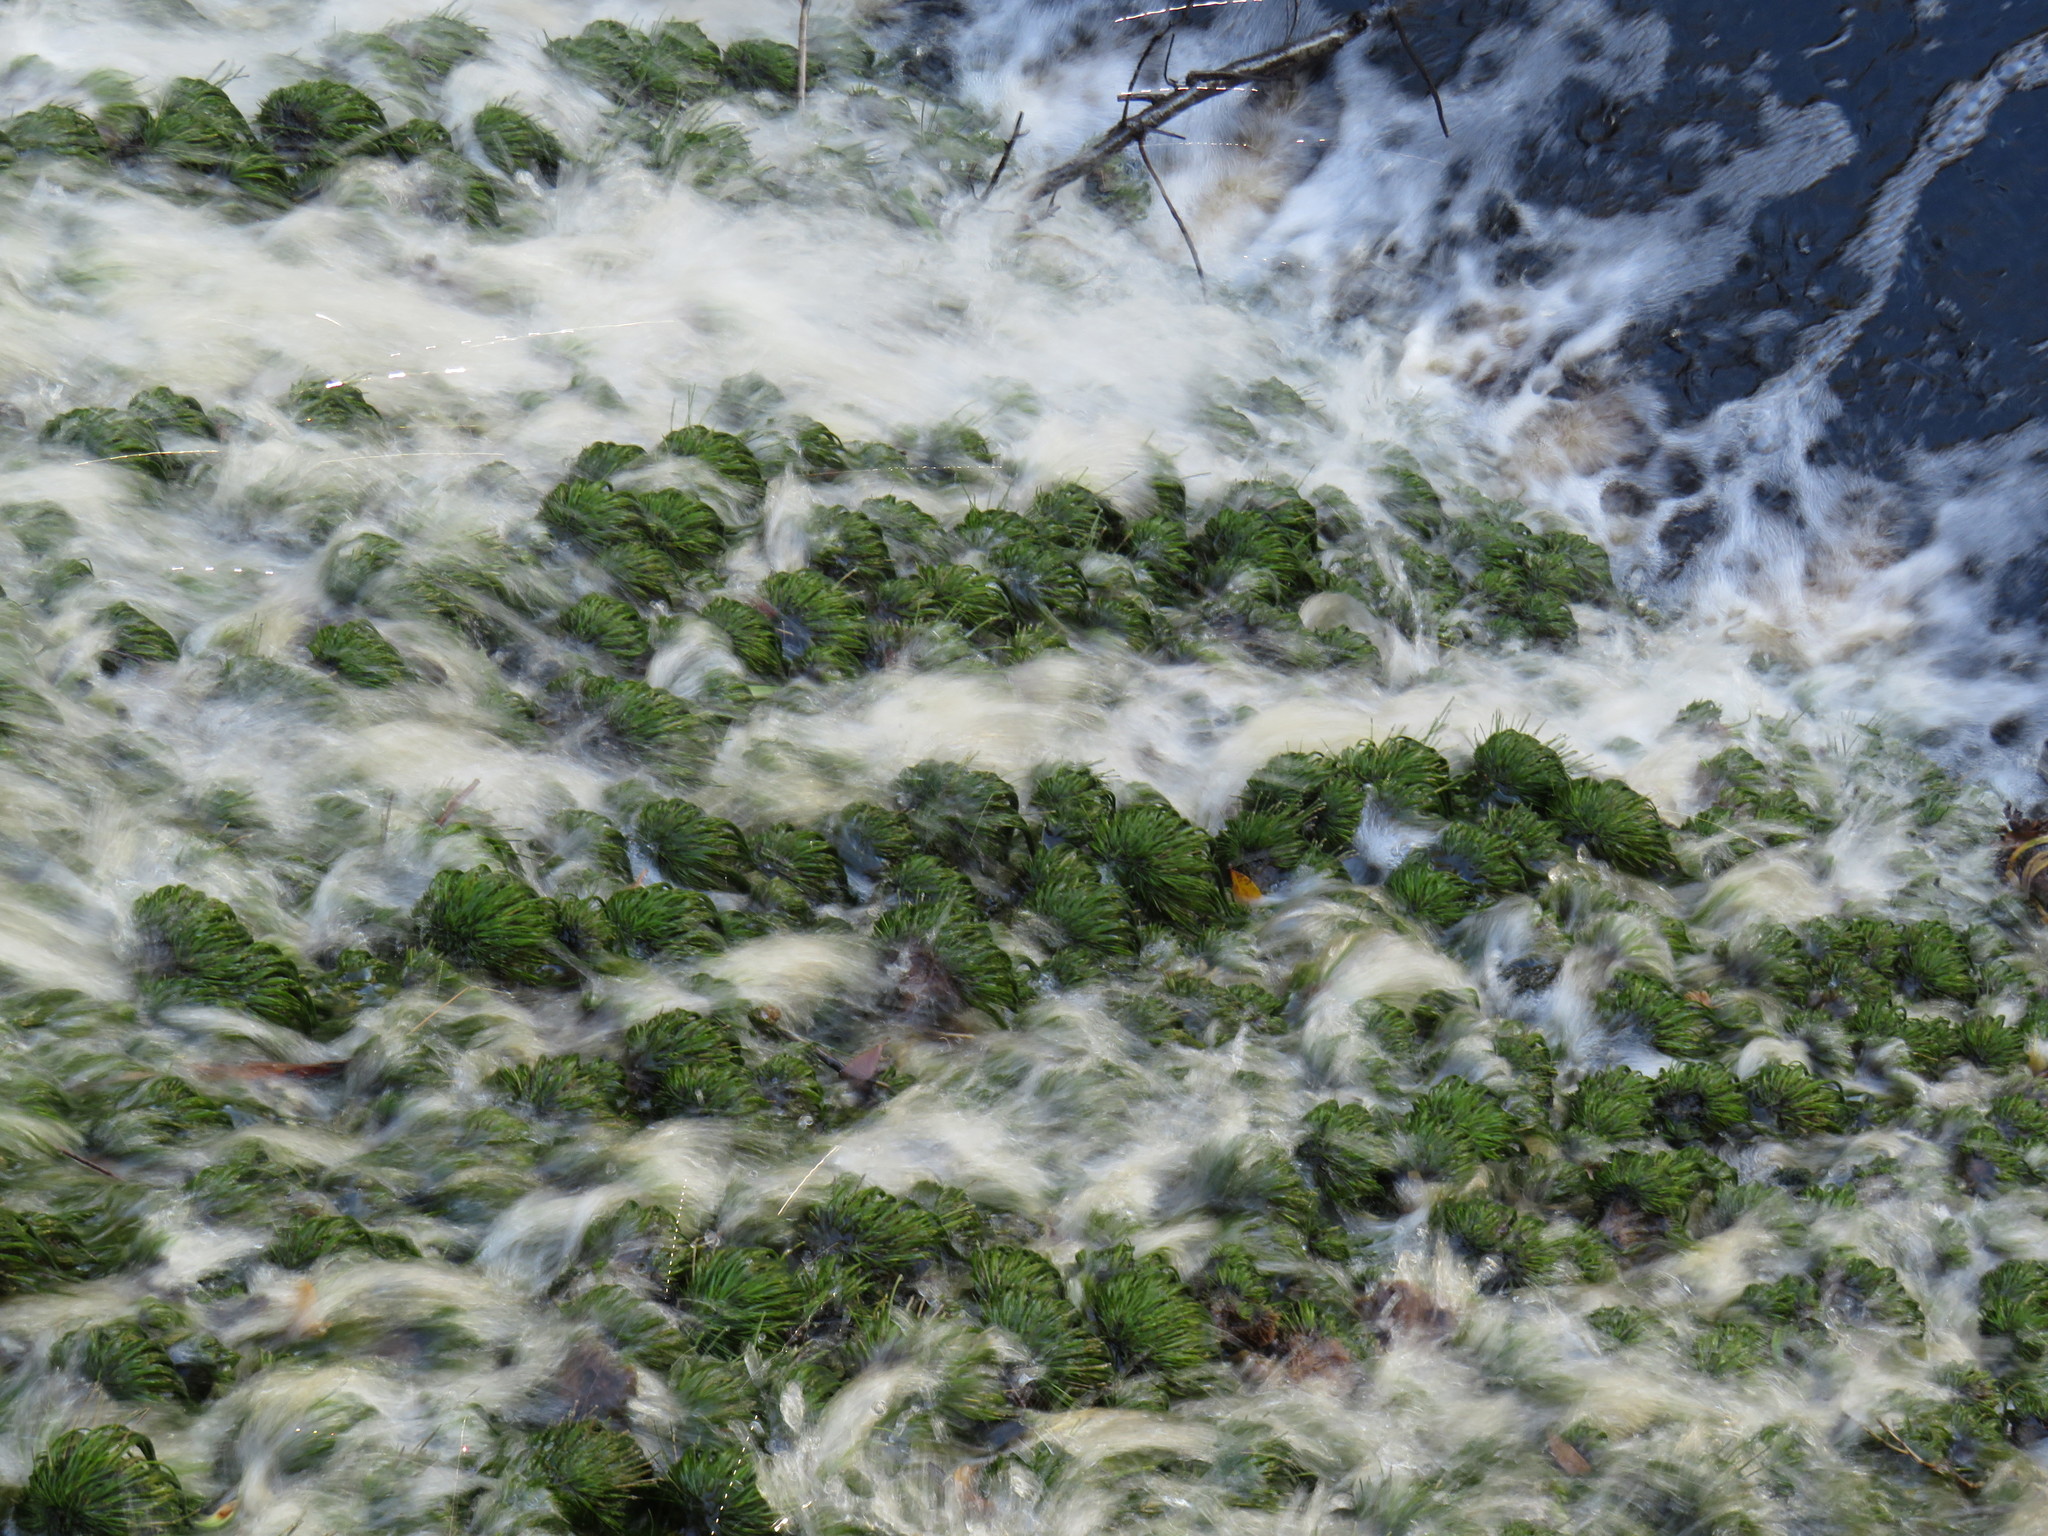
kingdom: Plantae
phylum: Tracheophyta
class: Liliopsida
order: Poales
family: Cyperaceae
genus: Isolepis
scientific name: Isolepis digitata
